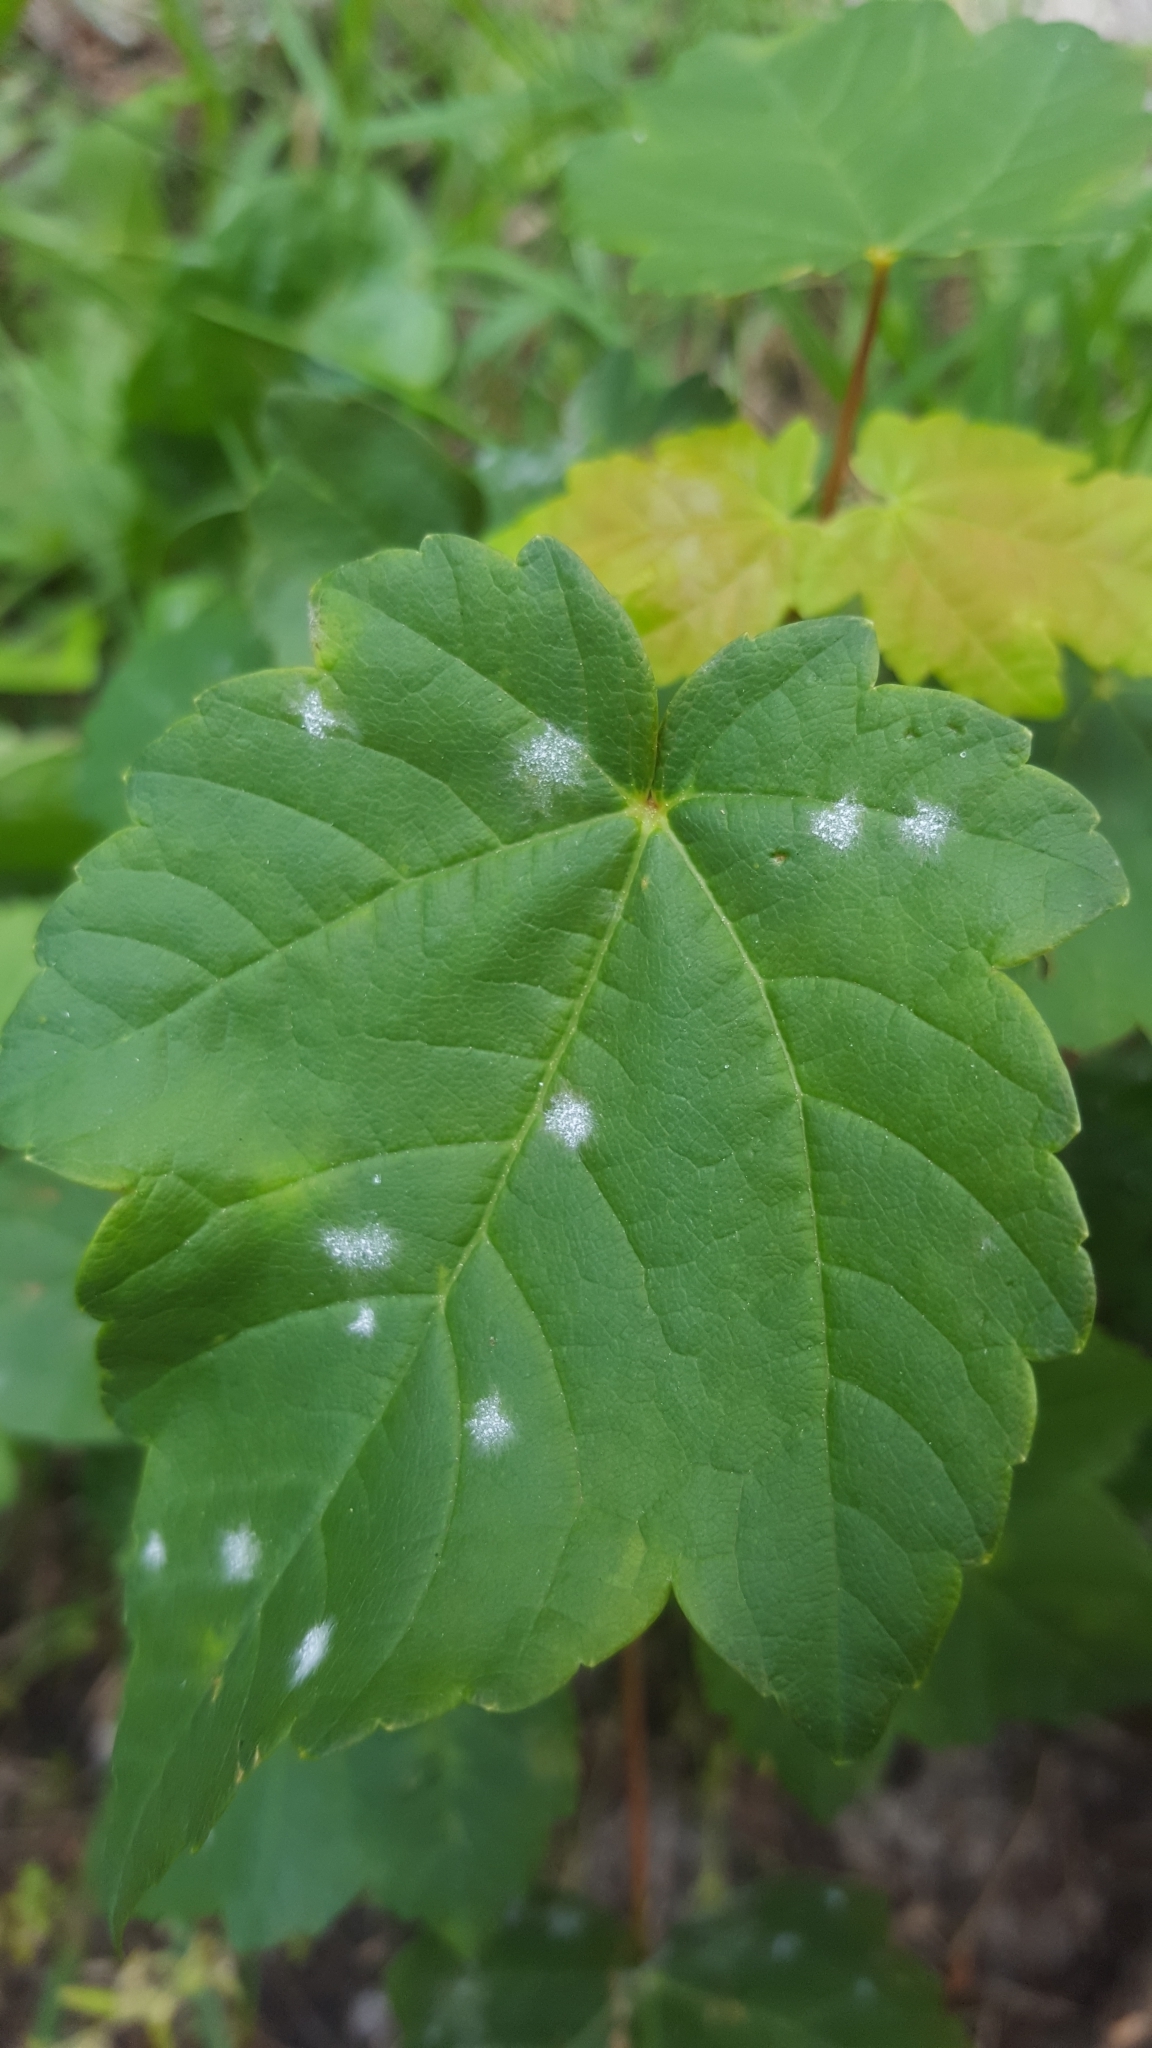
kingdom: Fungi
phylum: Ascomycota
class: Leotiomycetes
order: Helotiales
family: Erysiphaceae
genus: Sawadaea
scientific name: Sawadaea bicornis
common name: Maple mildew
